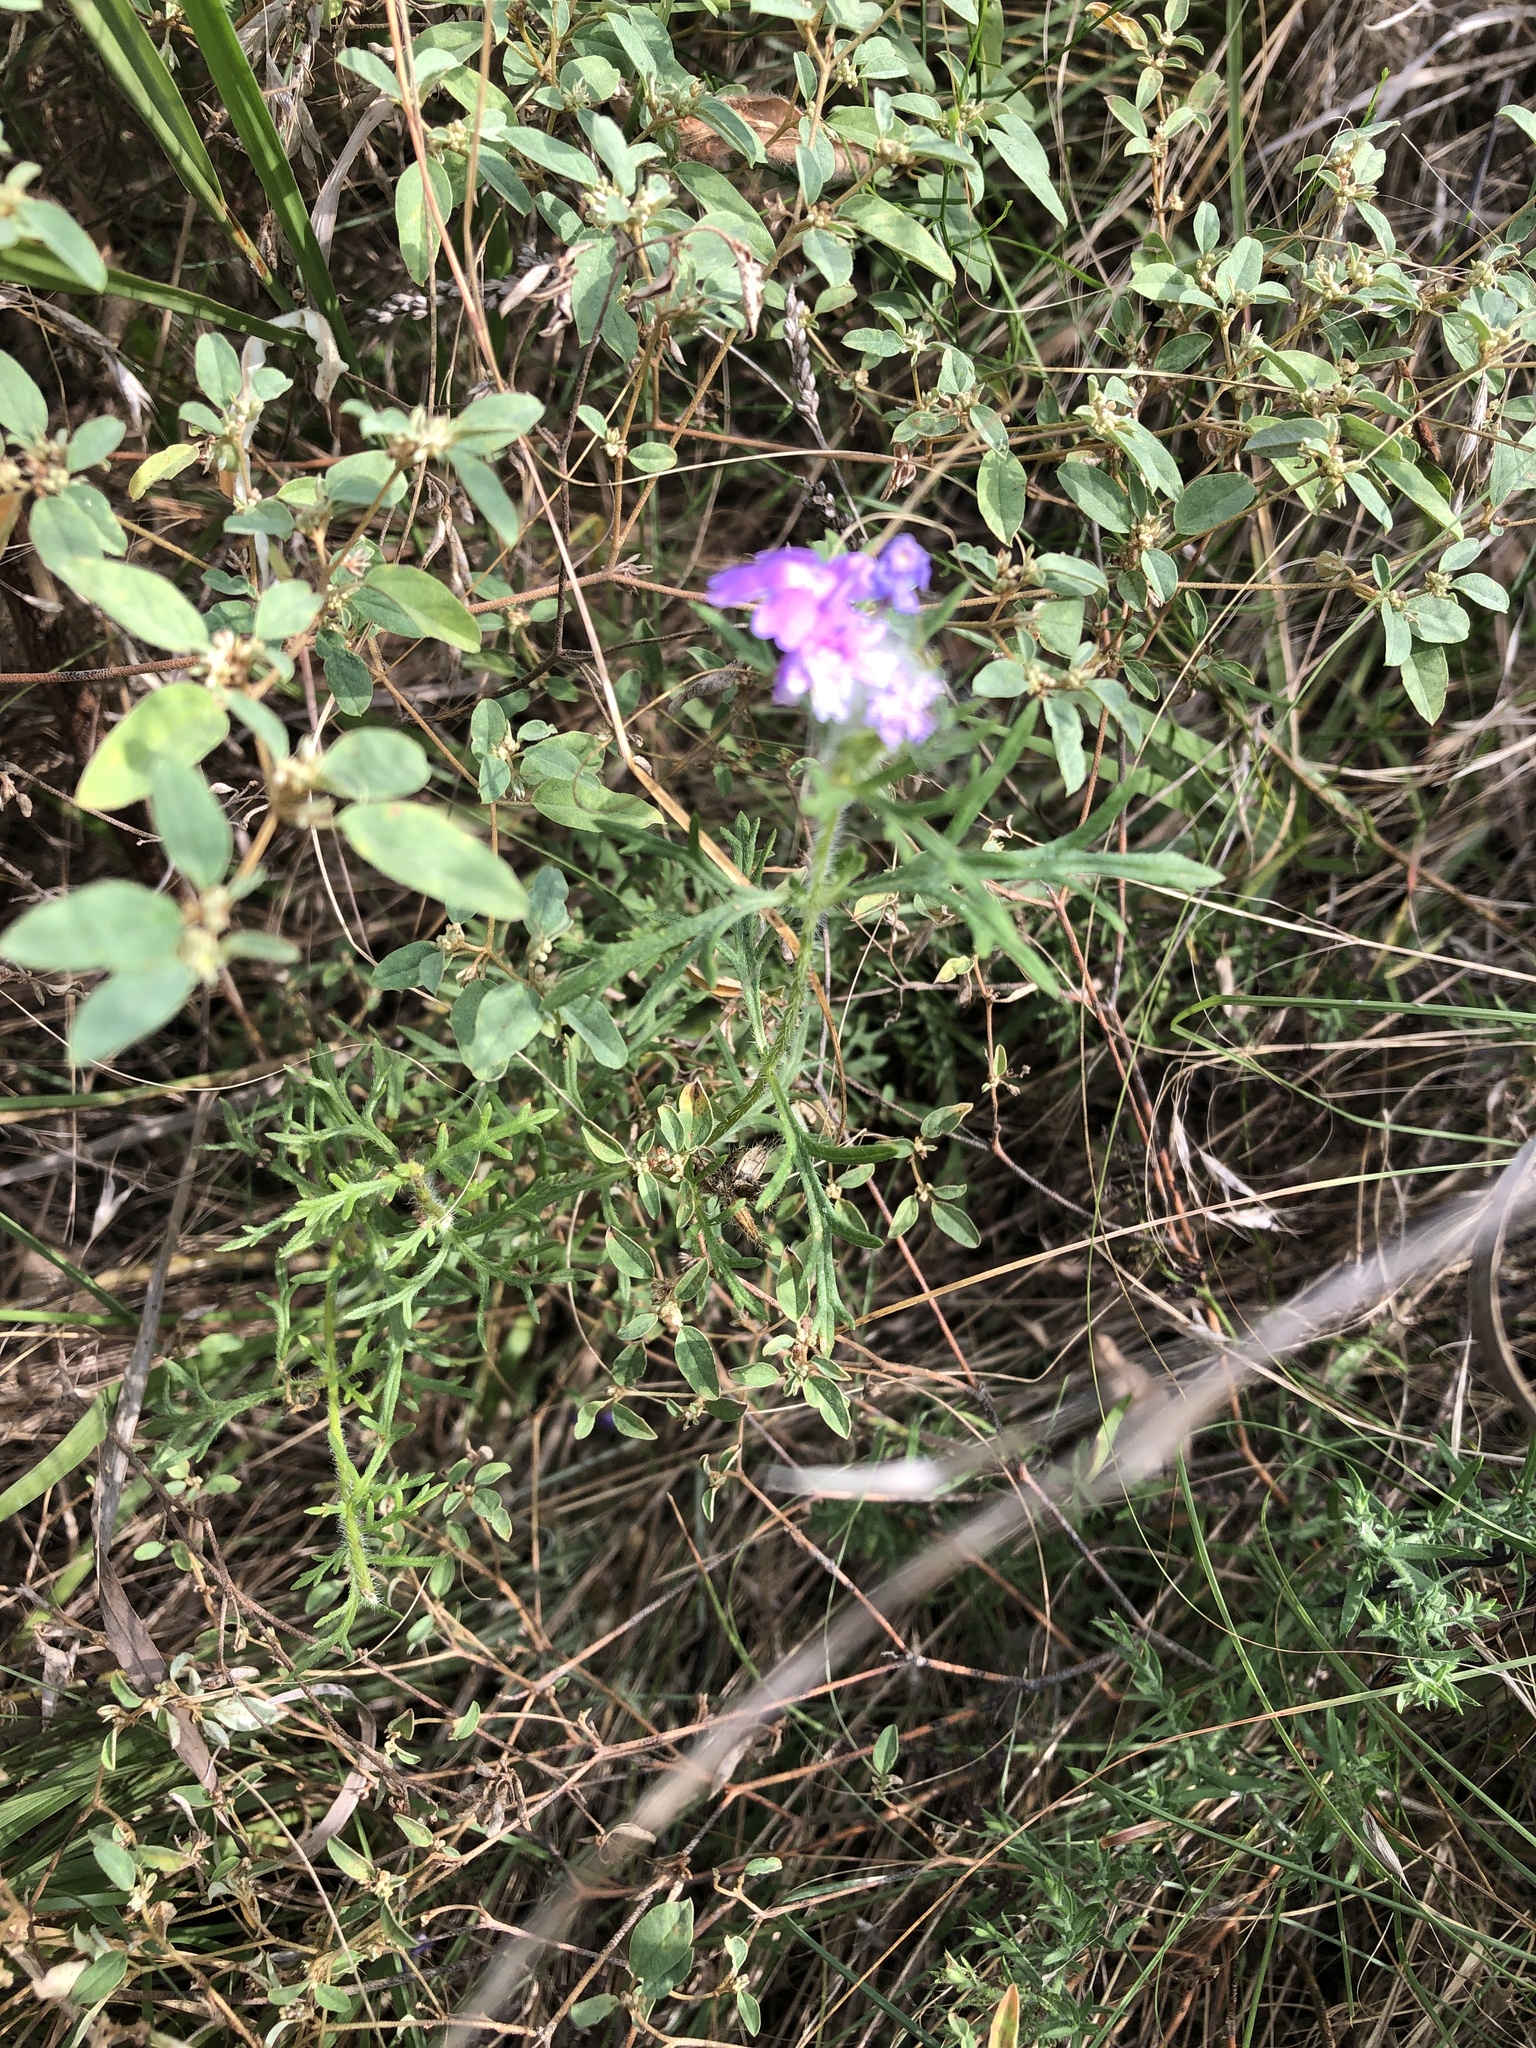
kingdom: Plantae
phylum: Tracheophyta
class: Magnoliopsida
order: Lamiales
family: Verbenaceae
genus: Verbena
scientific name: Verbena bipinnatifida
